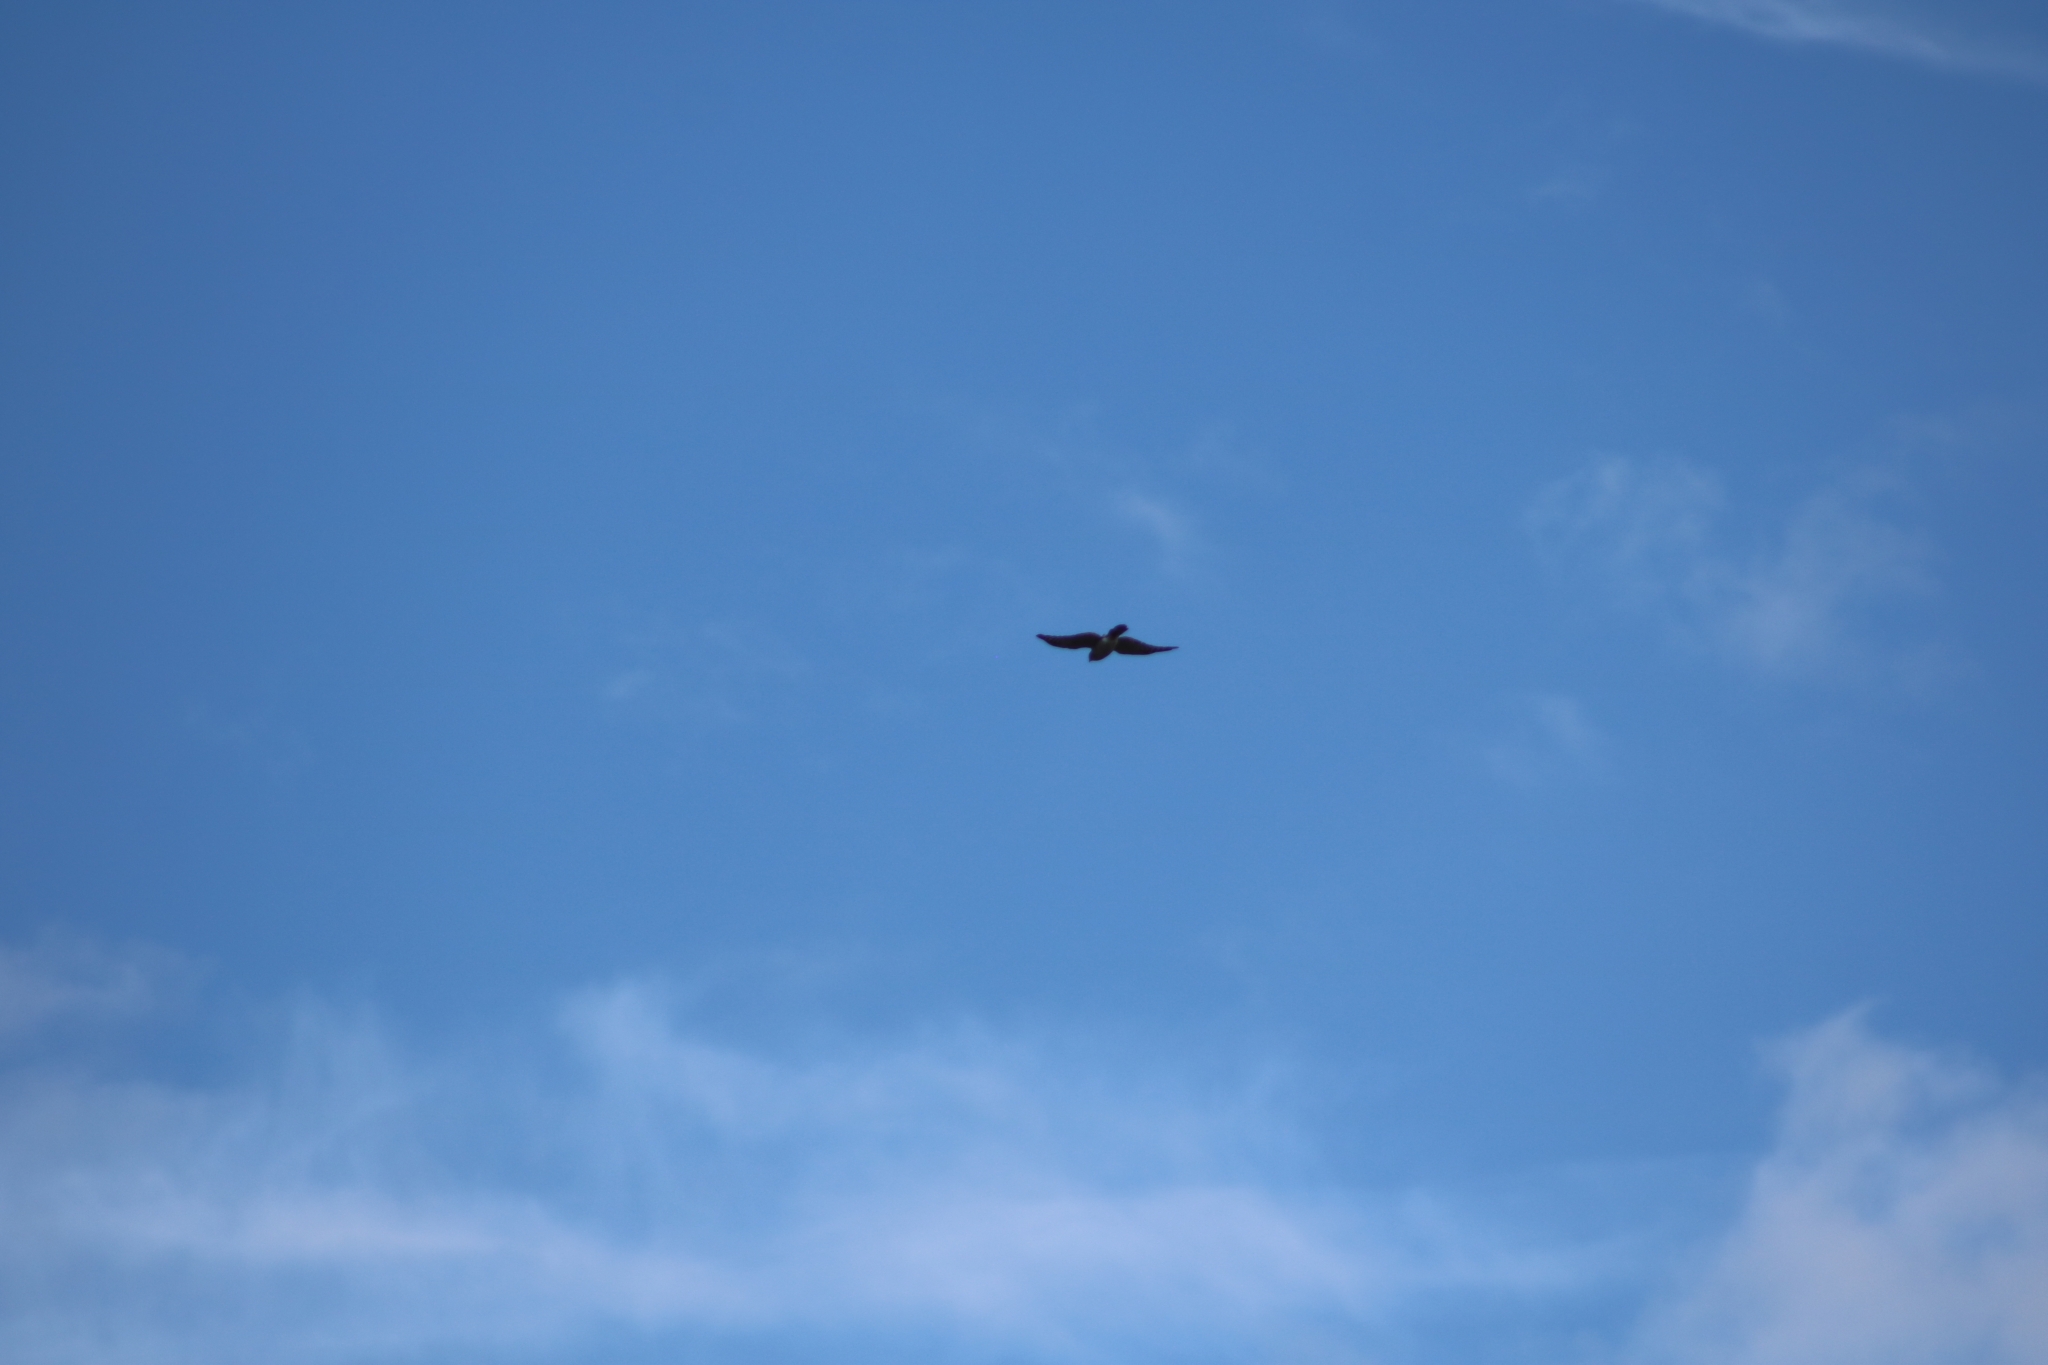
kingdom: Animalia
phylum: Chordata
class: Aves
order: Accipitriformes
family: Accipitridae
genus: Accipiter
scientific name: Accipiter
